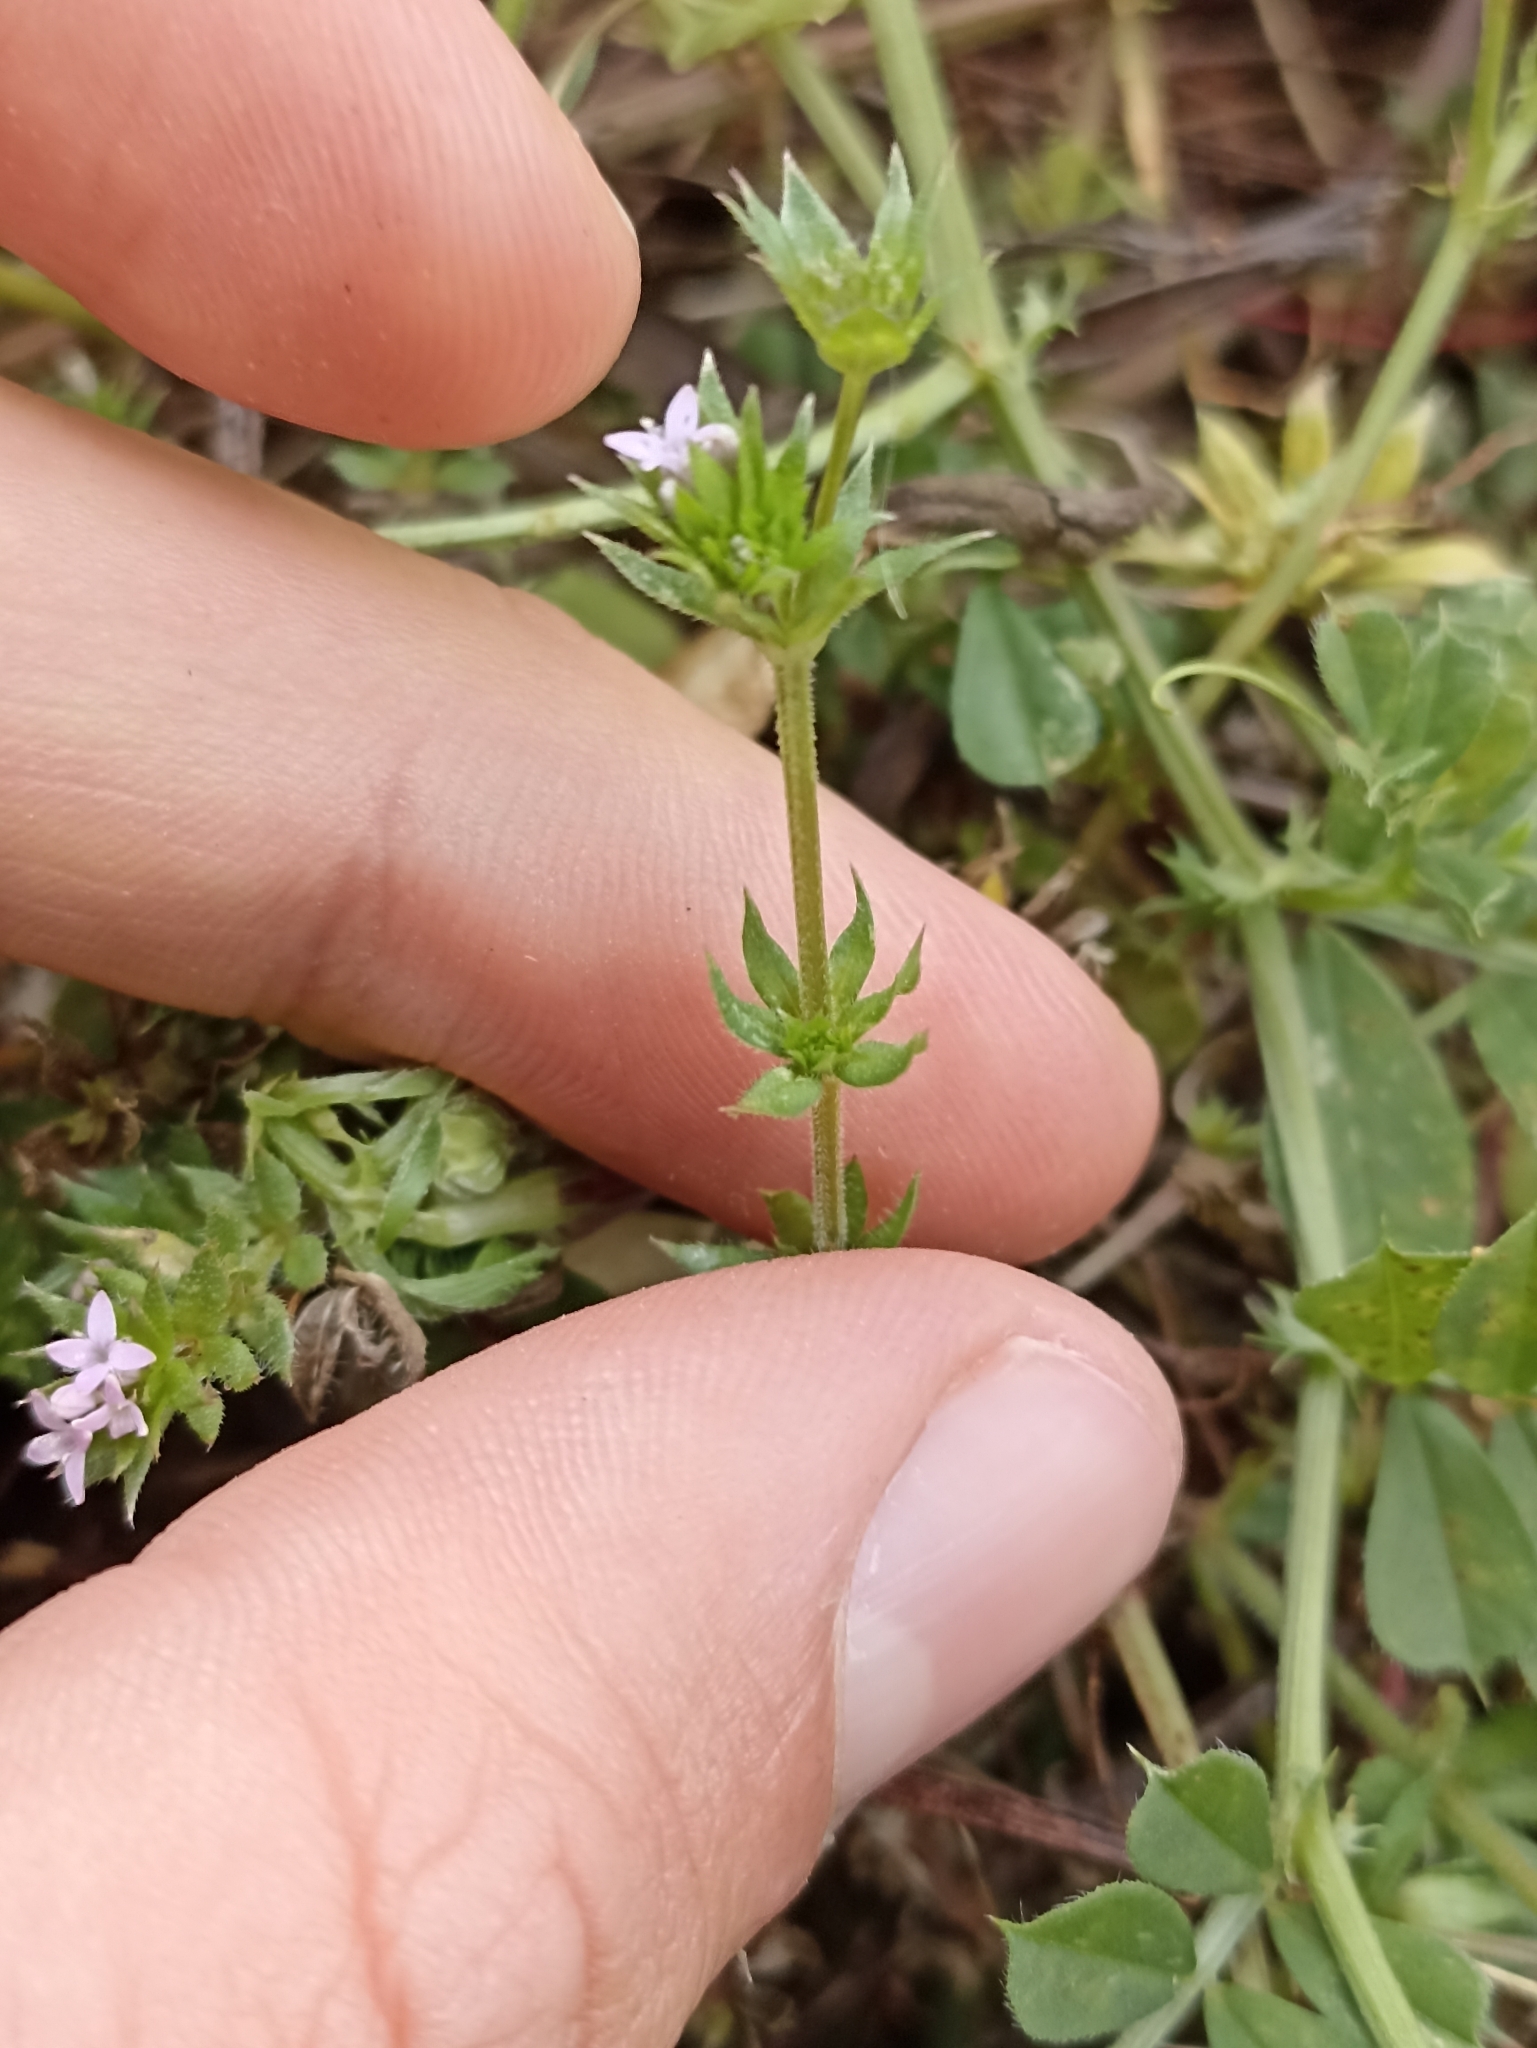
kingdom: Plantae
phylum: Tracheophyta
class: Magnoliopsida
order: Gentianales
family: Rubiaceae
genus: Sherardia
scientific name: Sherardia arvensis
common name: Field madder
